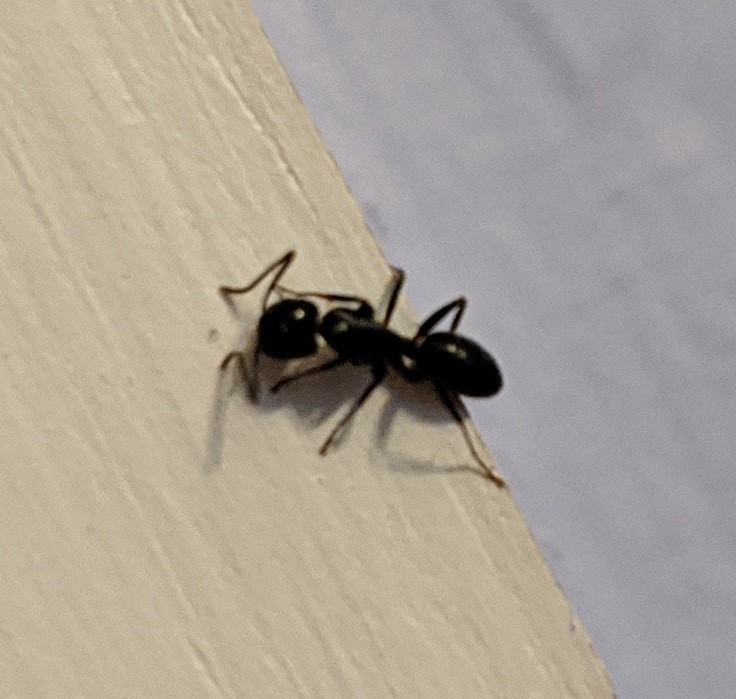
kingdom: Animalia
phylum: Arthropoda
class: Insecta
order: Hymenoptera
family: Formicidae
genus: Myrmentoma
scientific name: Myrmentoma
